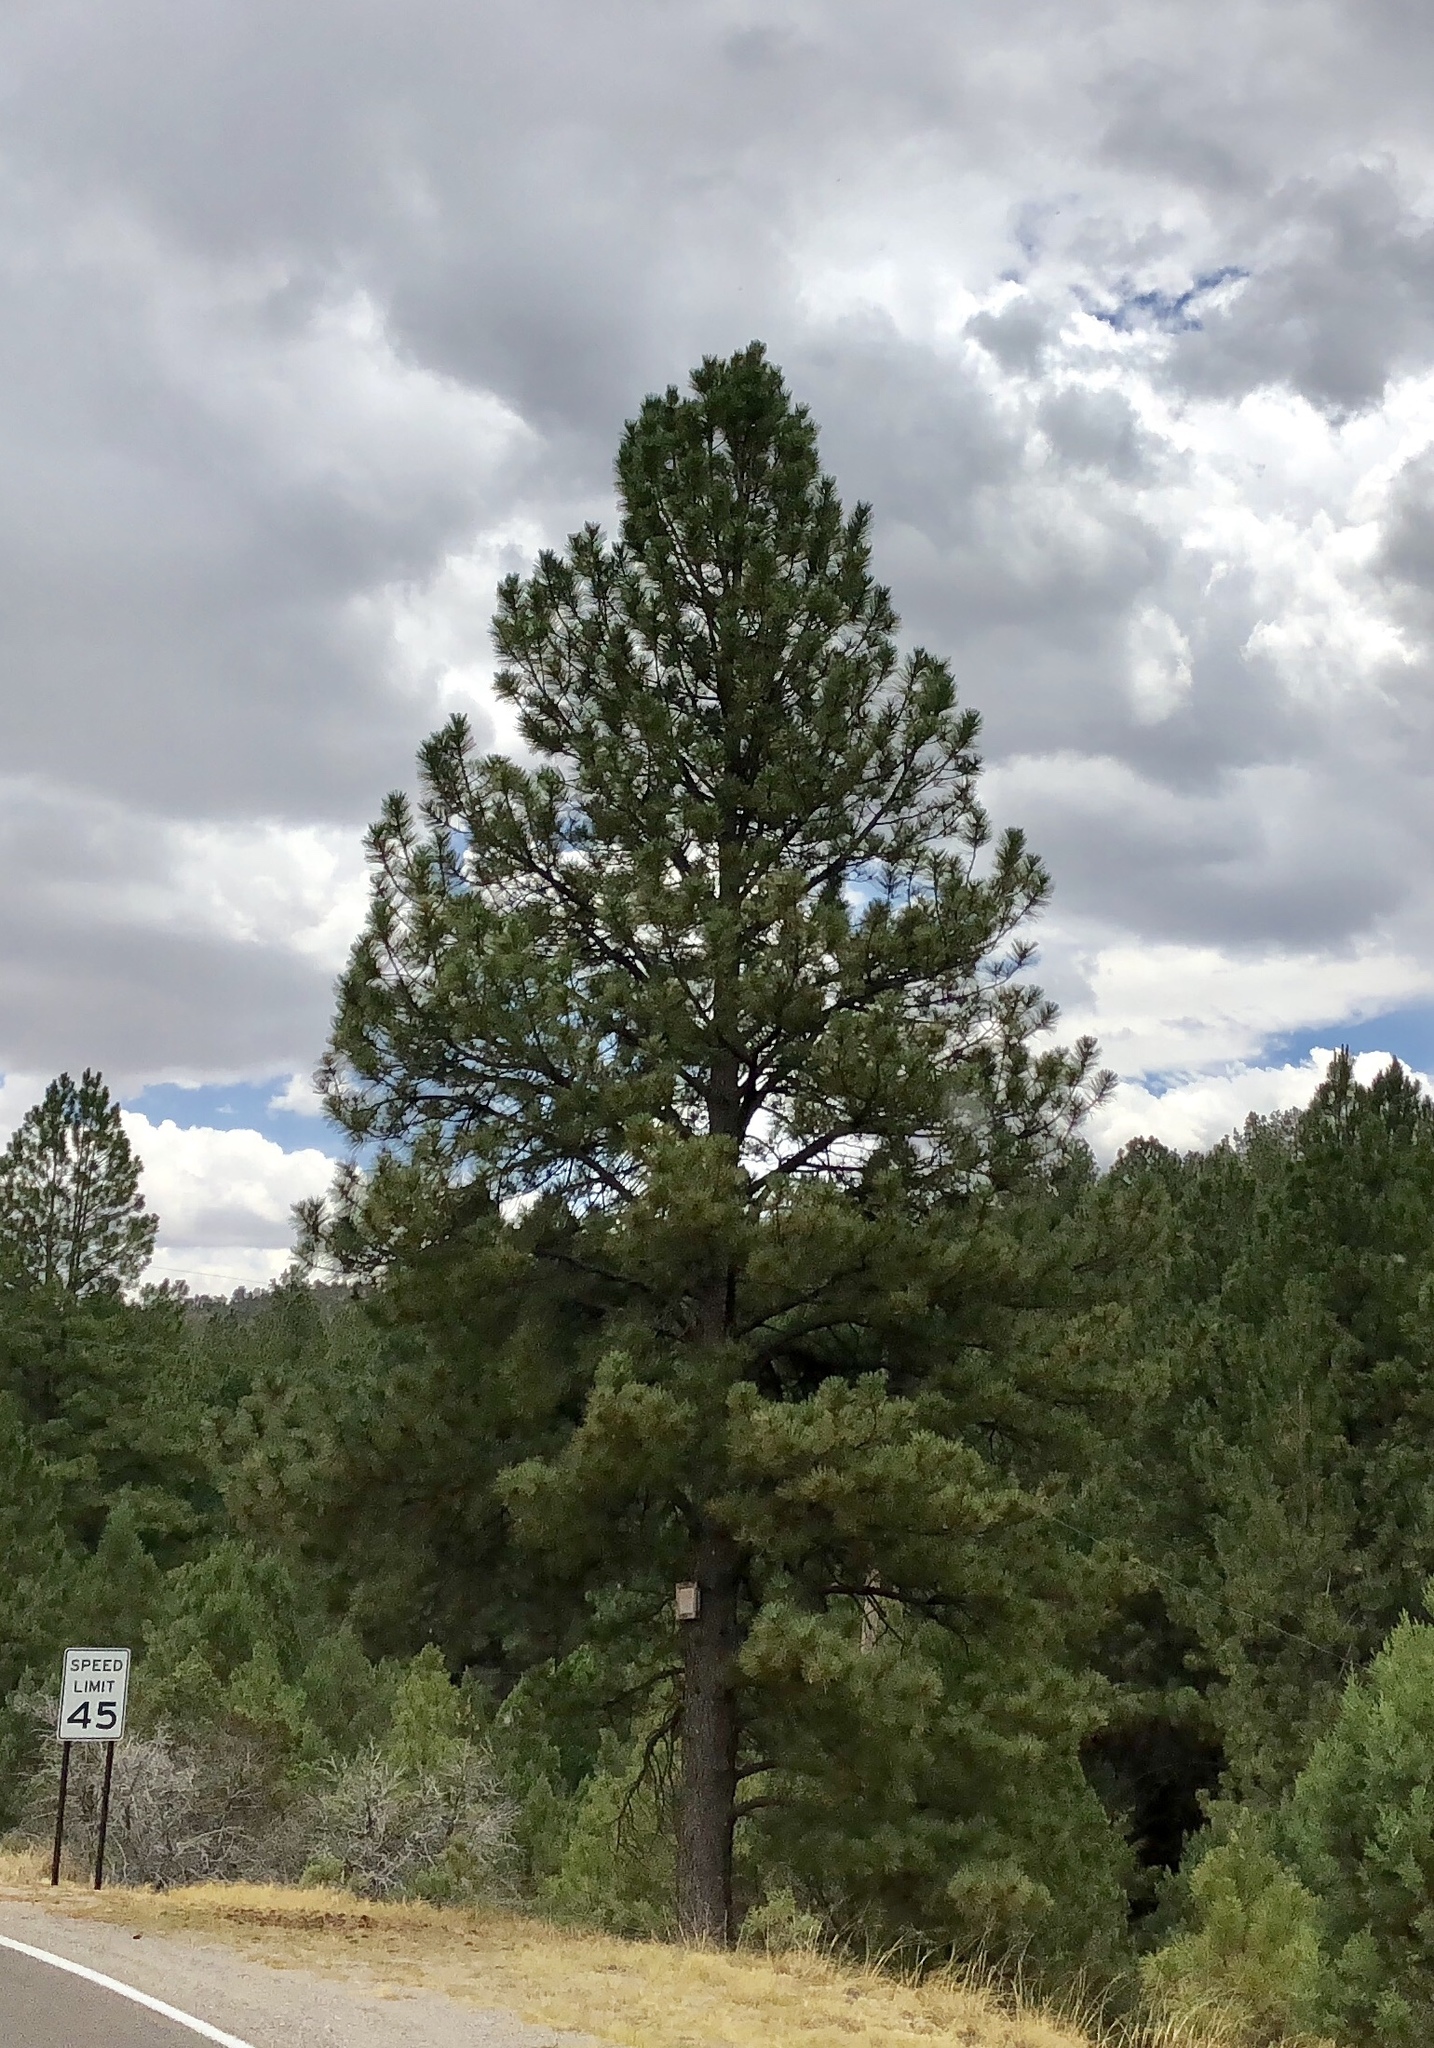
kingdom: Plantae
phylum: Tracheophyta
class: Pinopsida
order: Pinales
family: Pinaceae
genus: Pinus
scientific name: Pinus ponderosa
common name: Western yellow-pine
